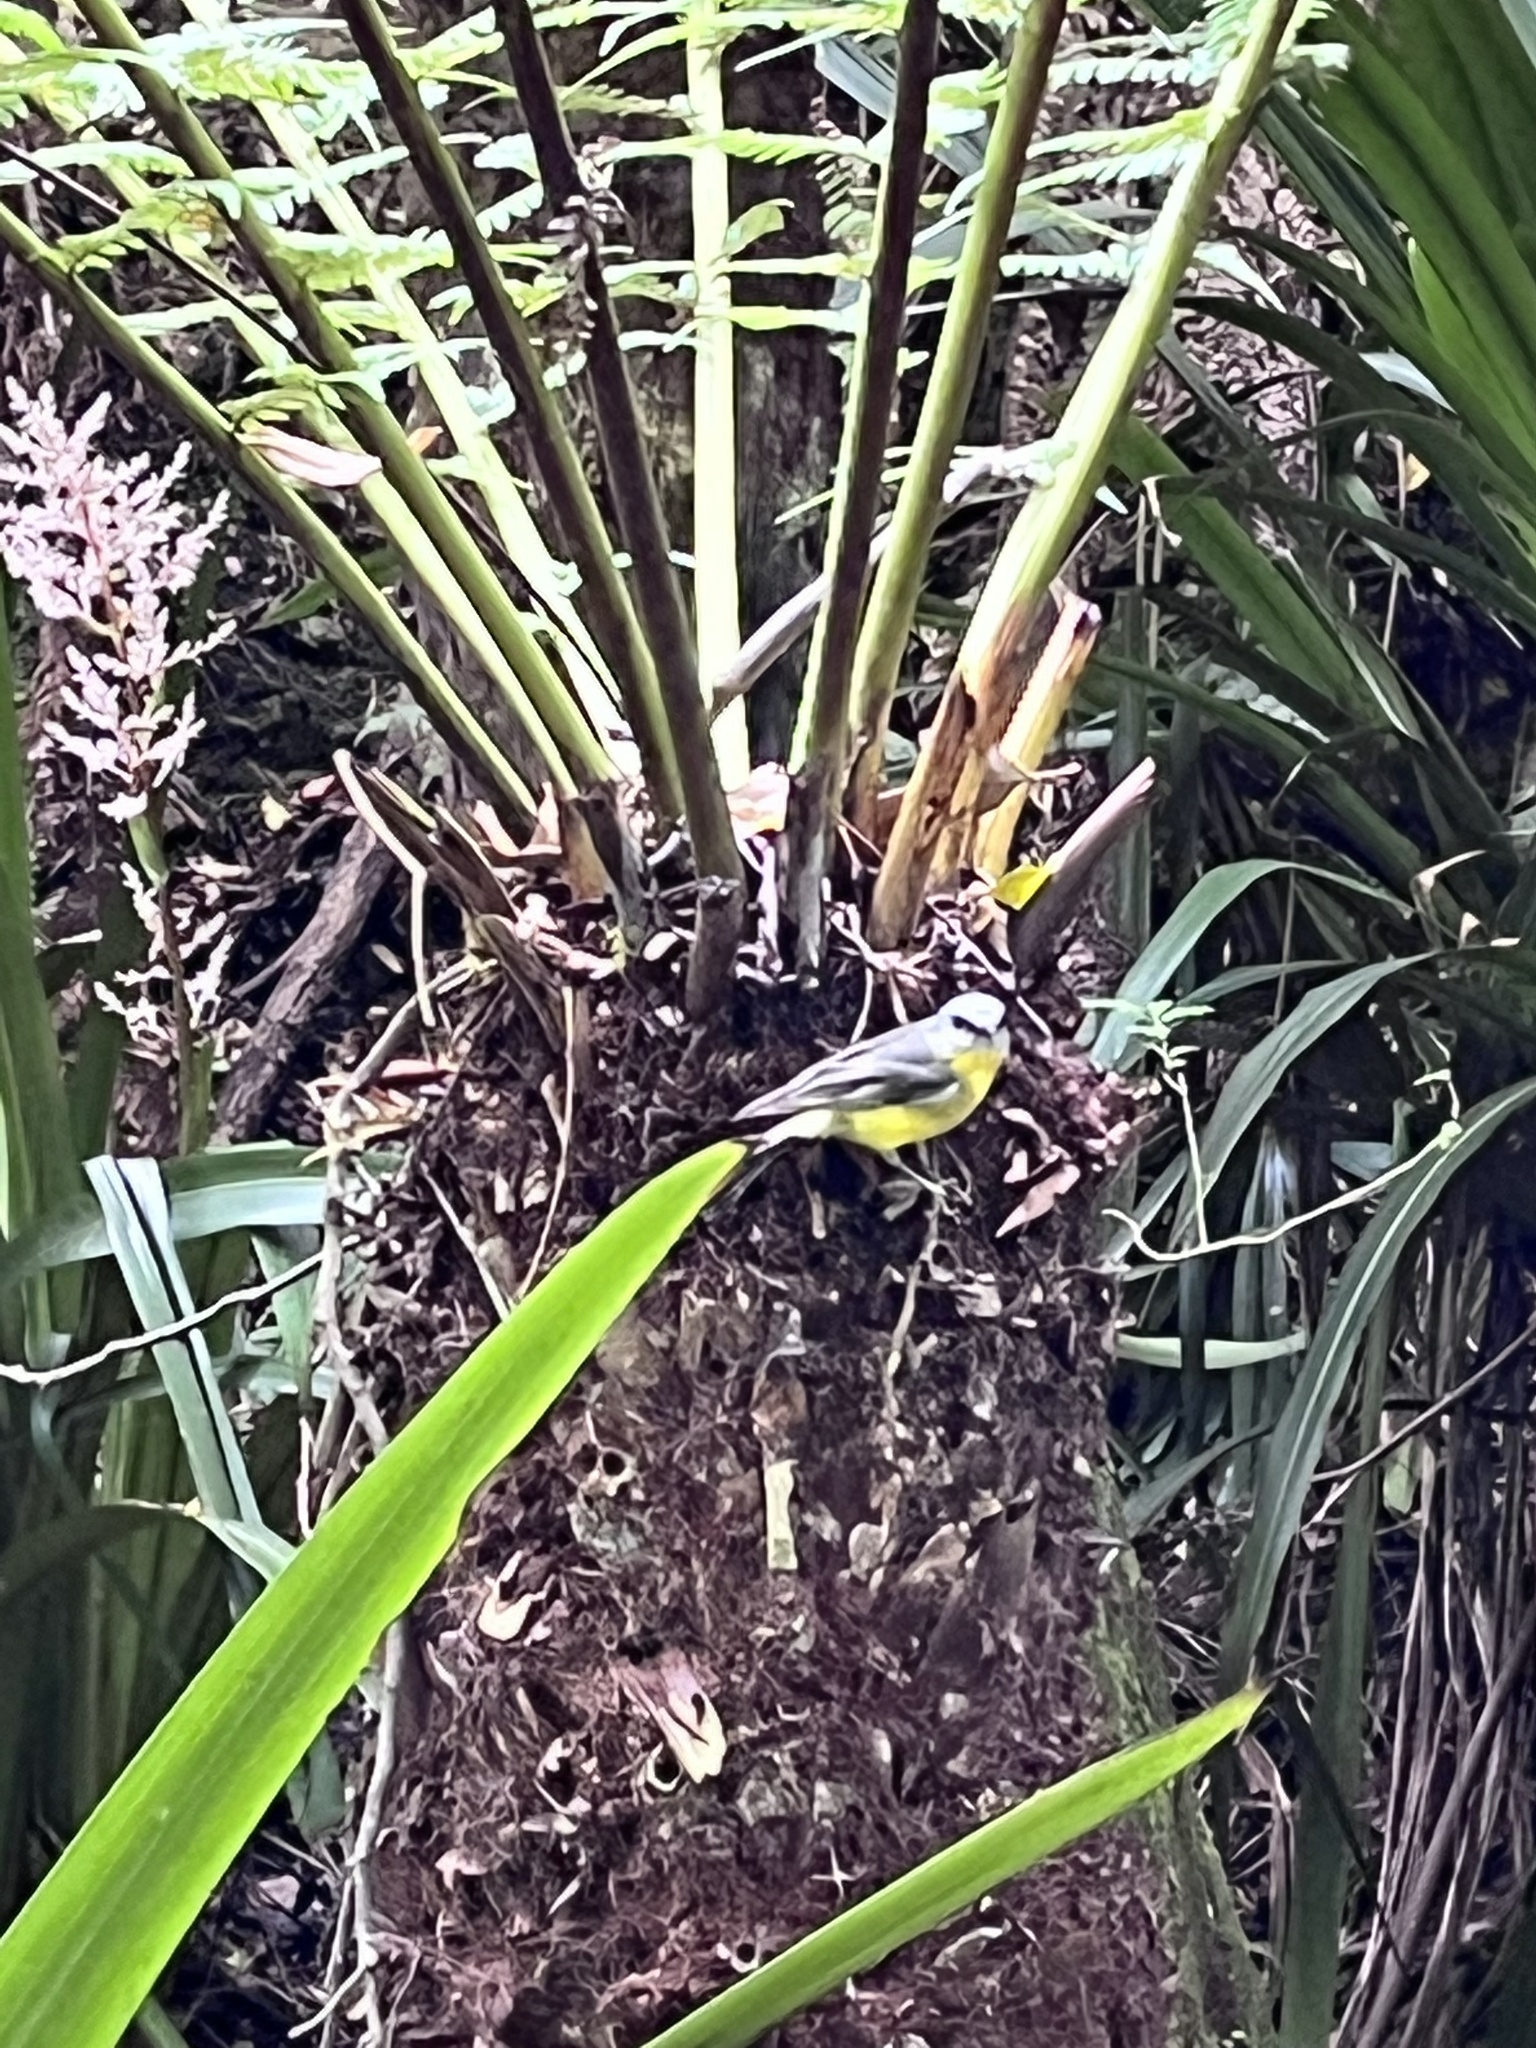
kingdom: Animalia
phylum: Chordata
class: Aves
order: Passeriformes
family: Petroicidae
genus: Eopsaltria
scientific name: Eopsaltria australis
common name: Eastern yellow robin
